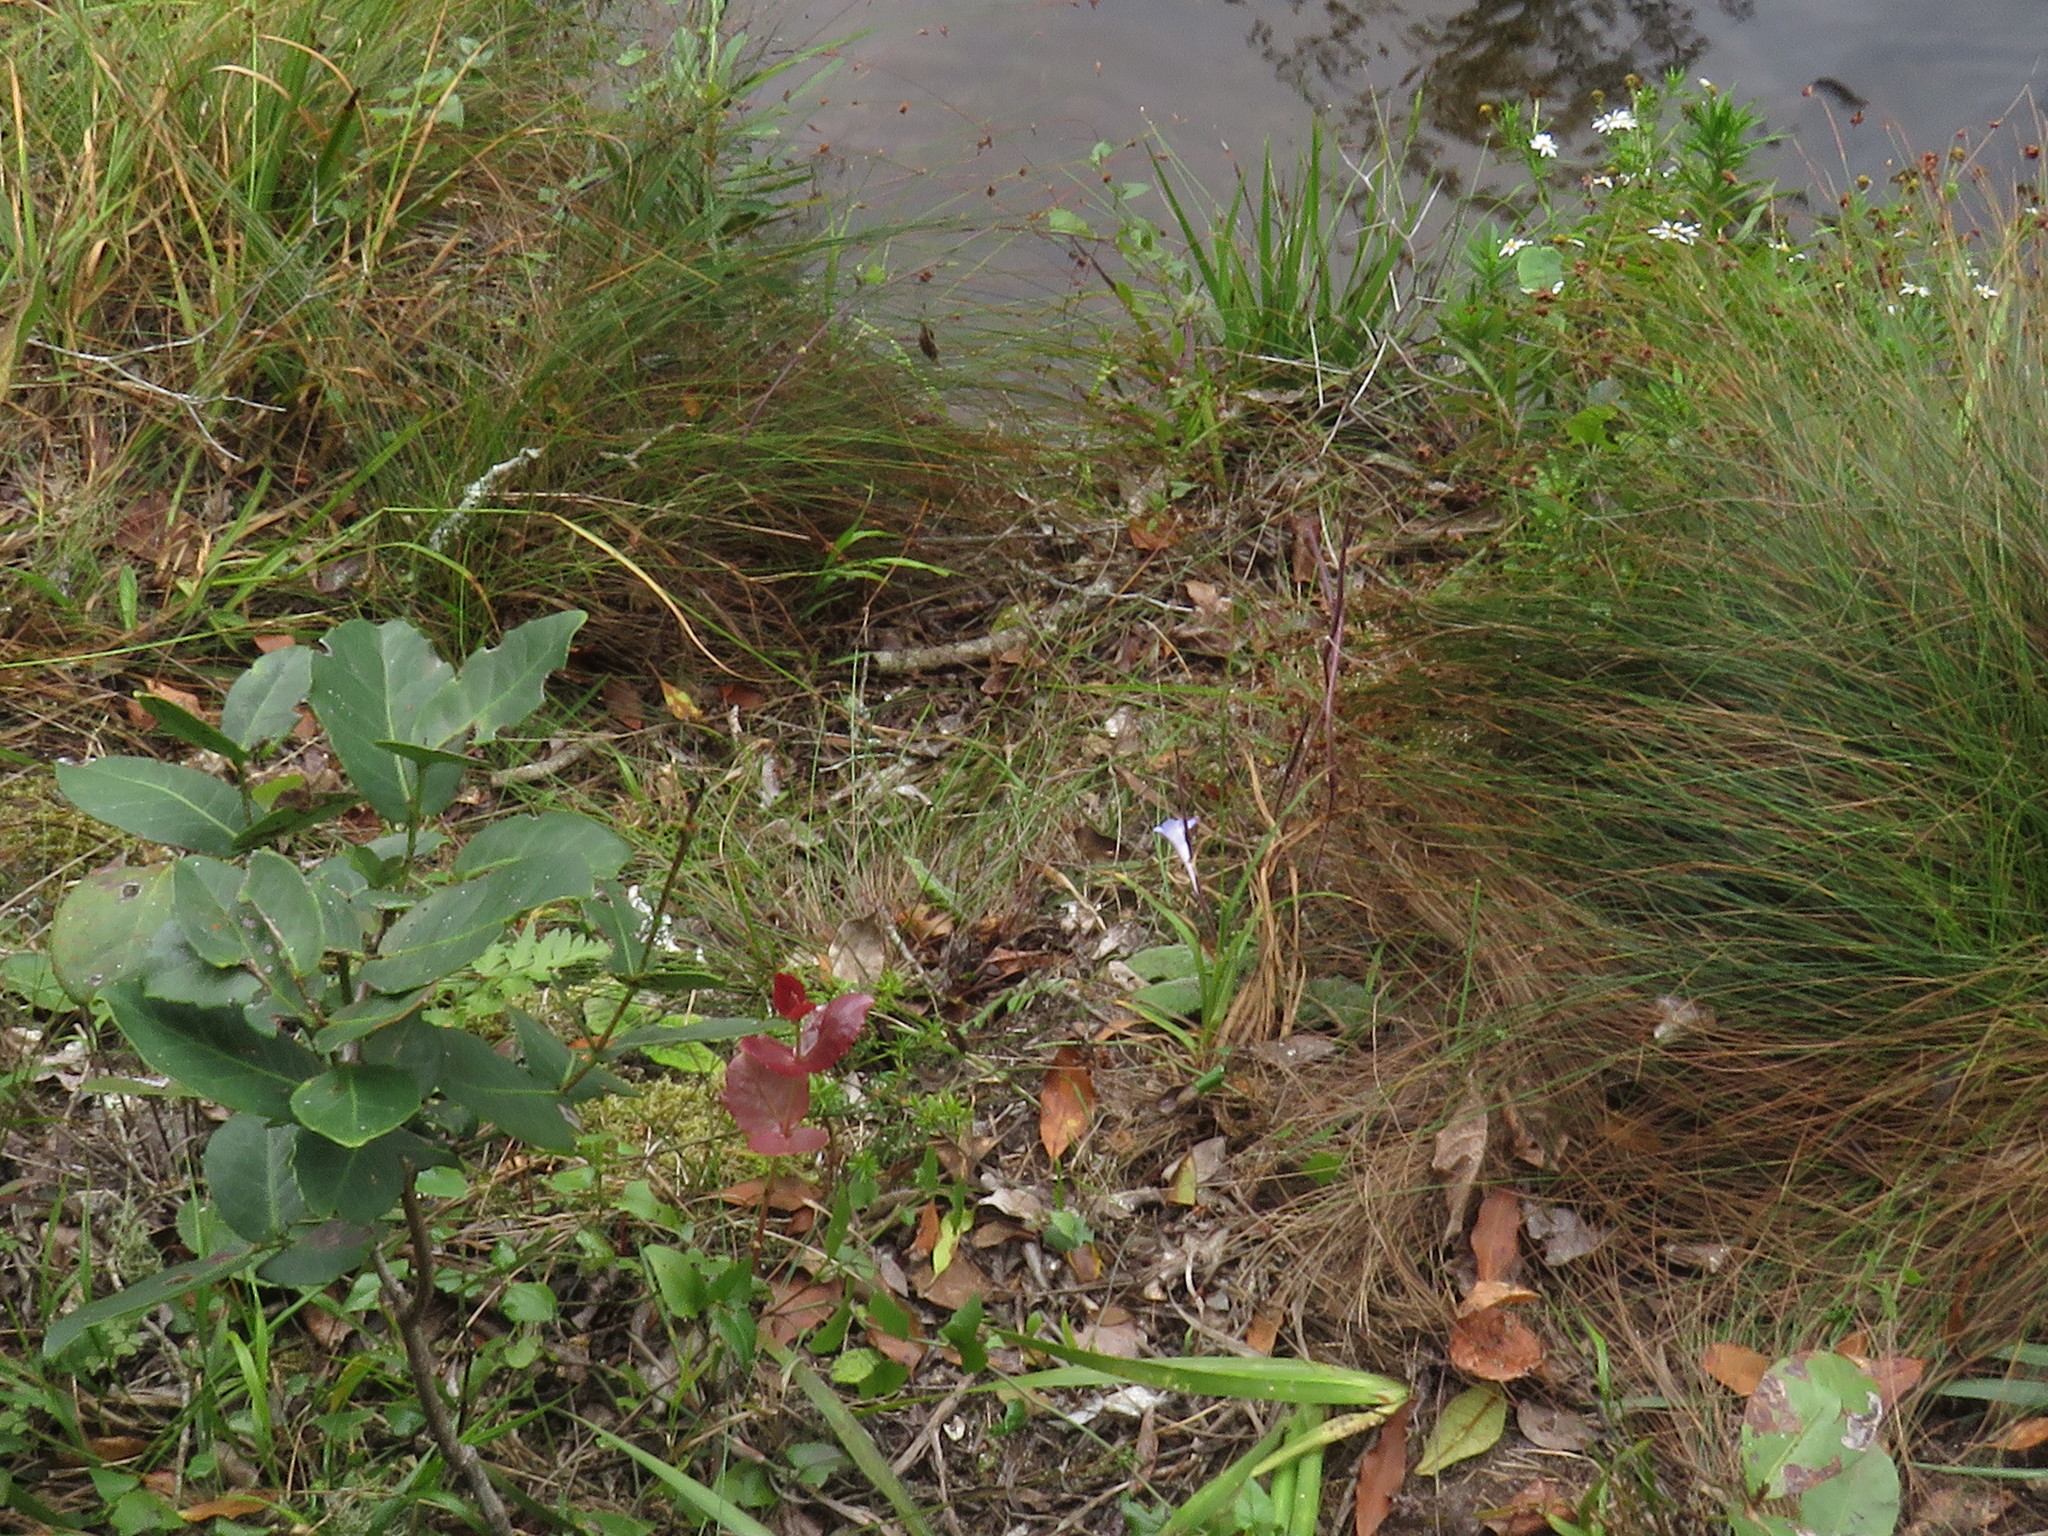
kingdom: Plantae
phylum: Tracheophyta
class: Magnoliopsida
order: Celastrales
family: Celastraceae
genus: Lauridia
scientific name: Lauridia tetragona
